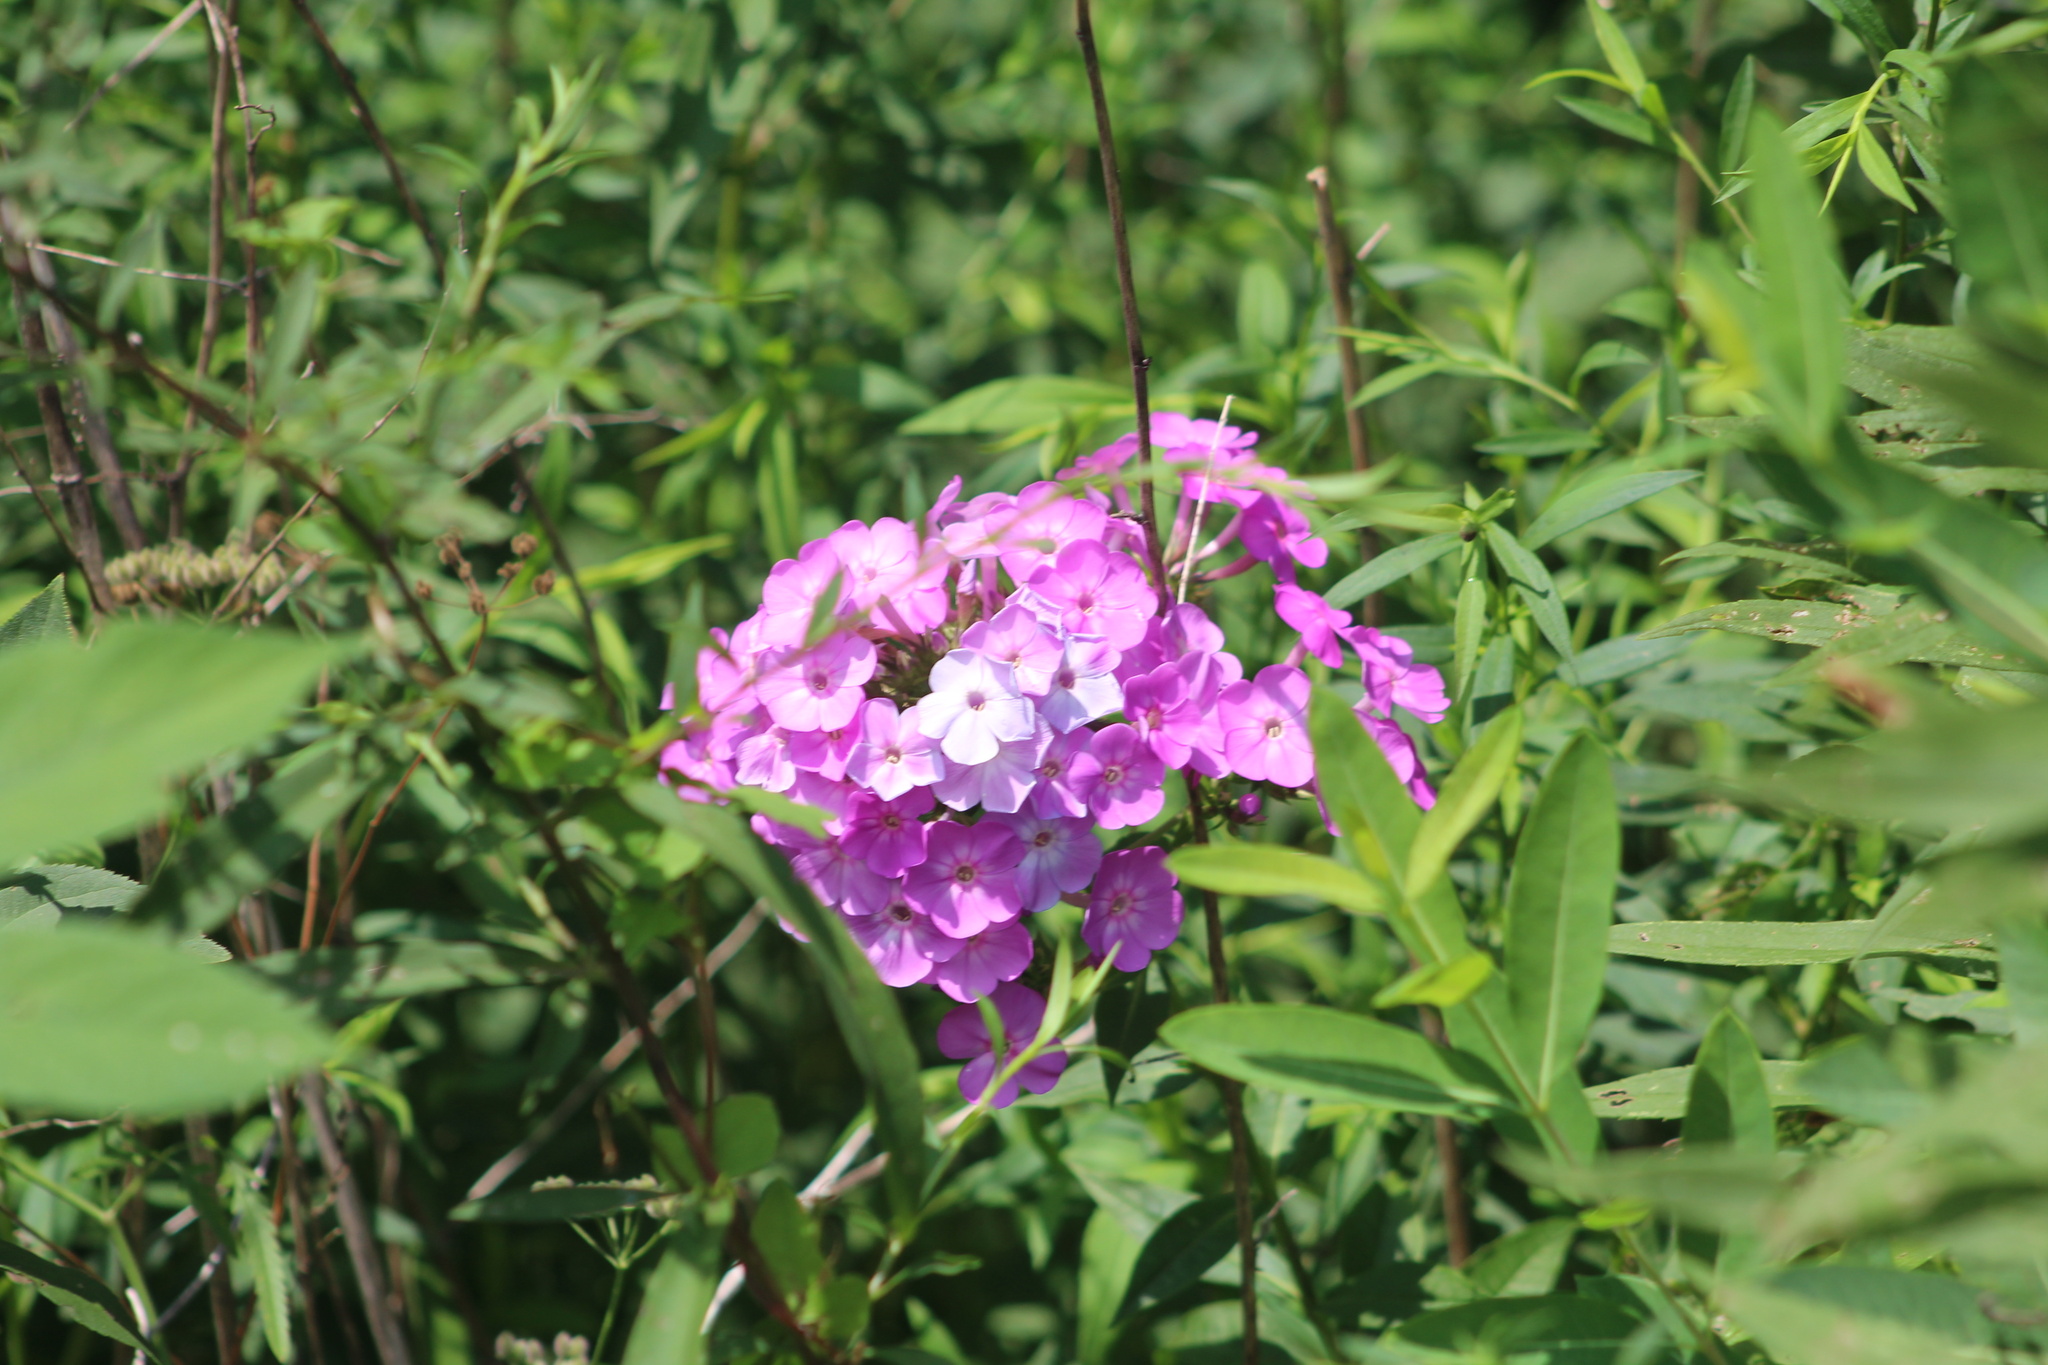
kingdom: Plantae
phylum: Tracheophyta
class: Magnoliopsida
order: Ericales
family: Polemoniaceae
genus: Phlox
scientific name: Phlox paniculata
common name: Fall phlox
